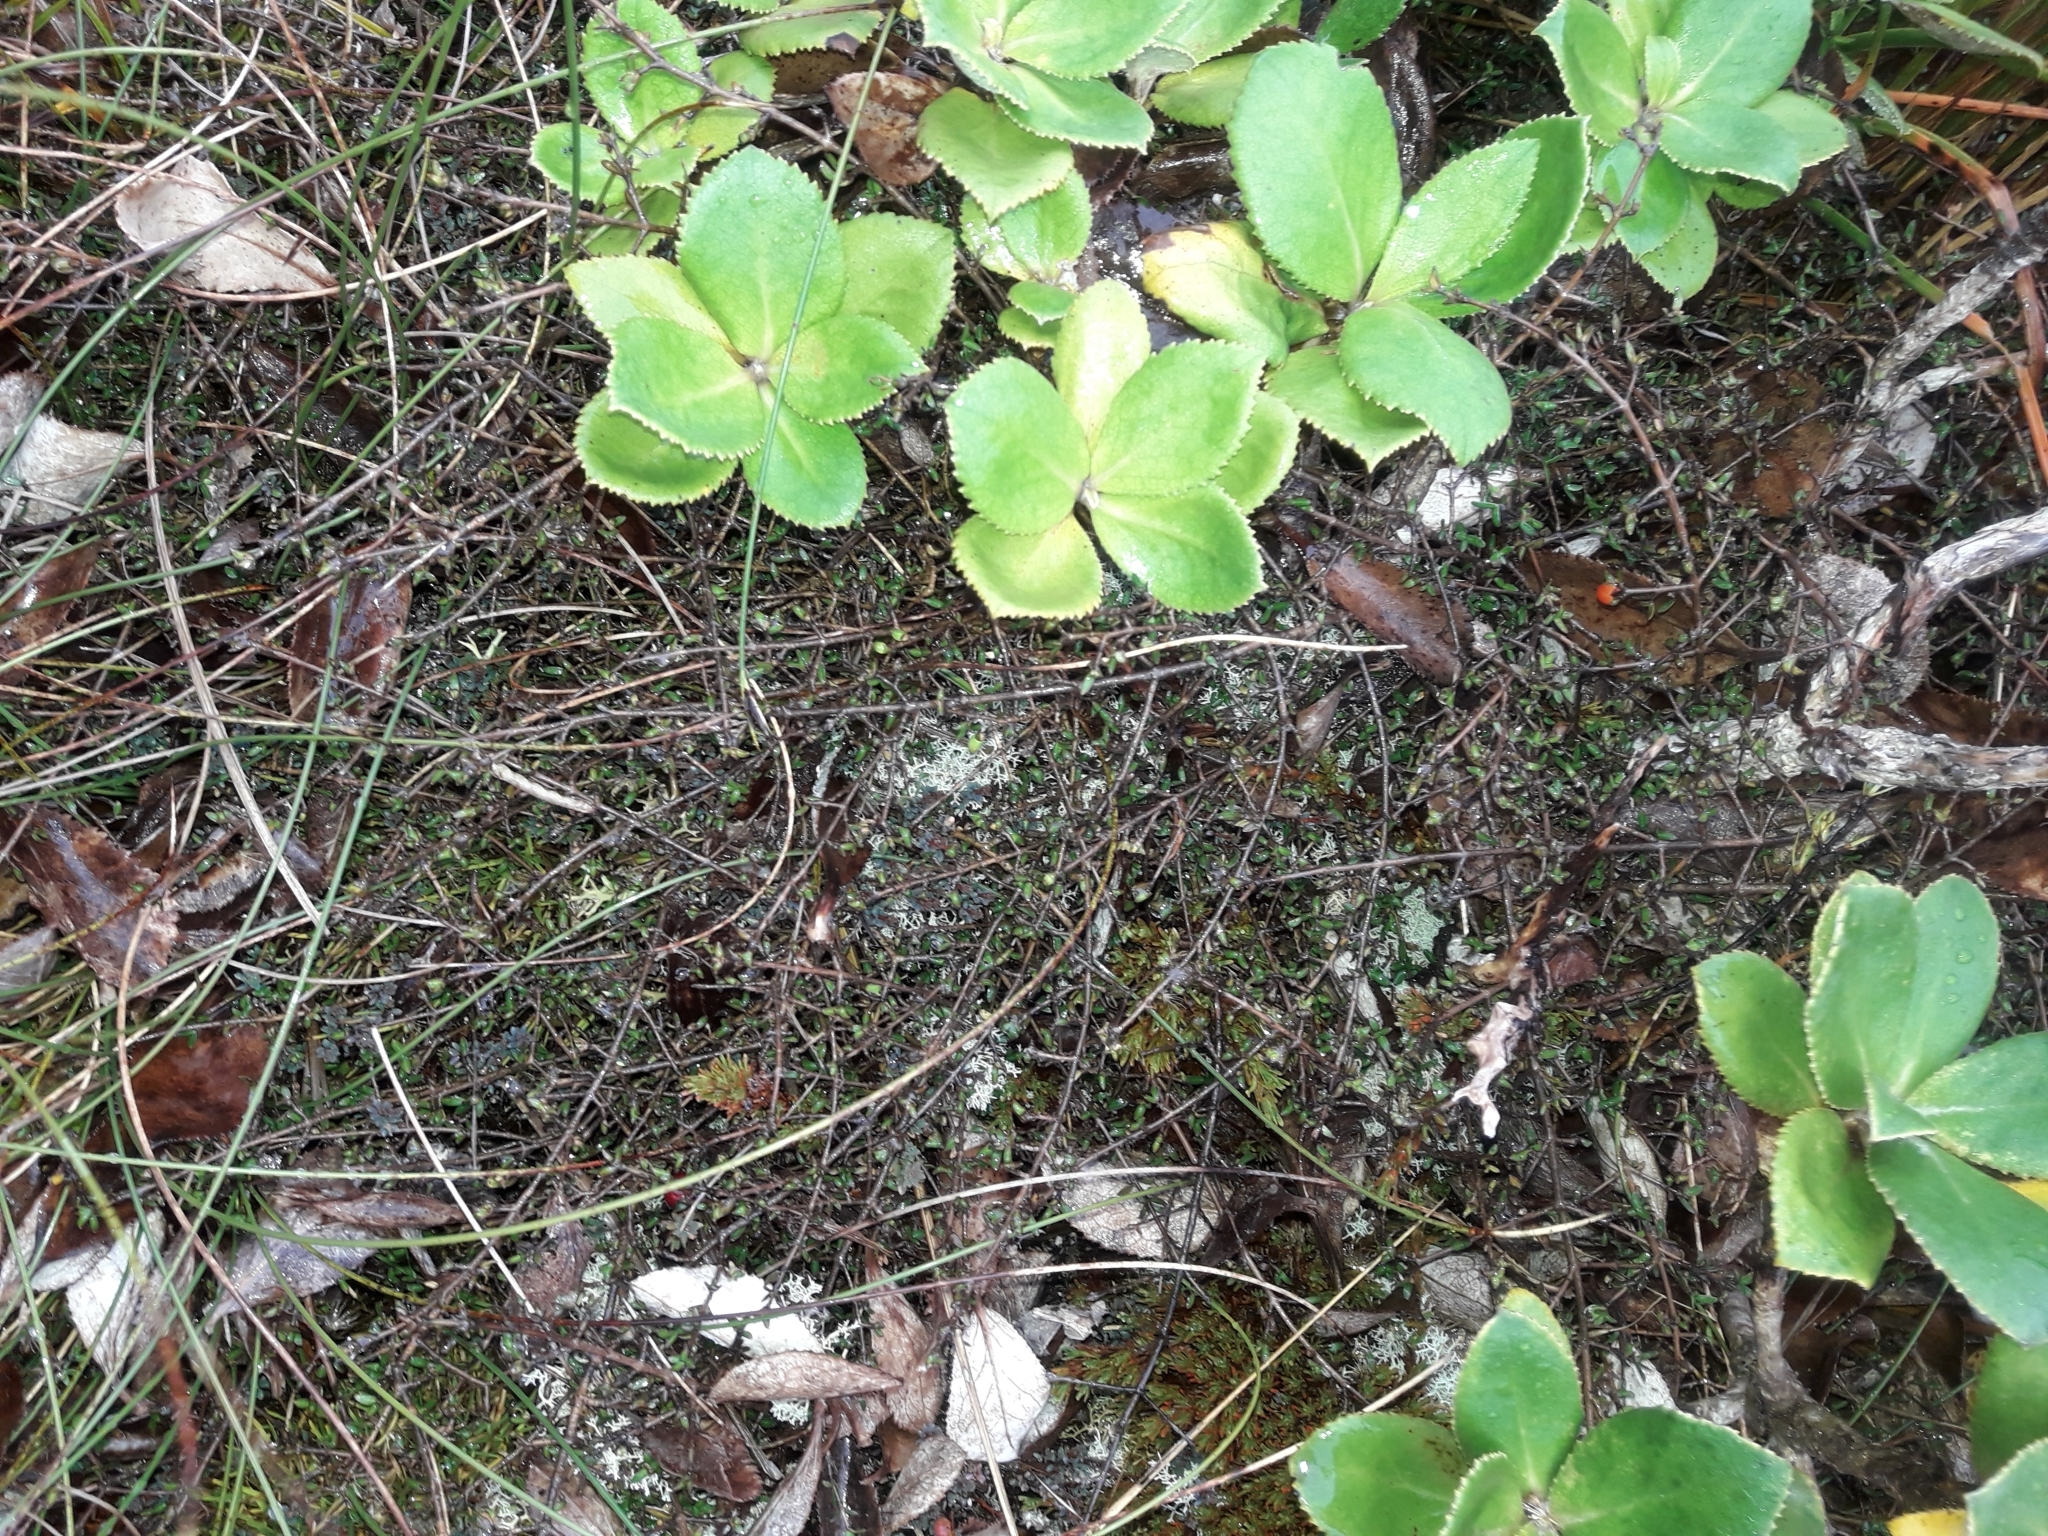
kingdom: Plantae
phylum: Tracheophyta
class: Magnoliopsida
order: Gentianales
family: Rubiaceae
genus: Coprosma
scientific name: Coprosma cheesemanii
